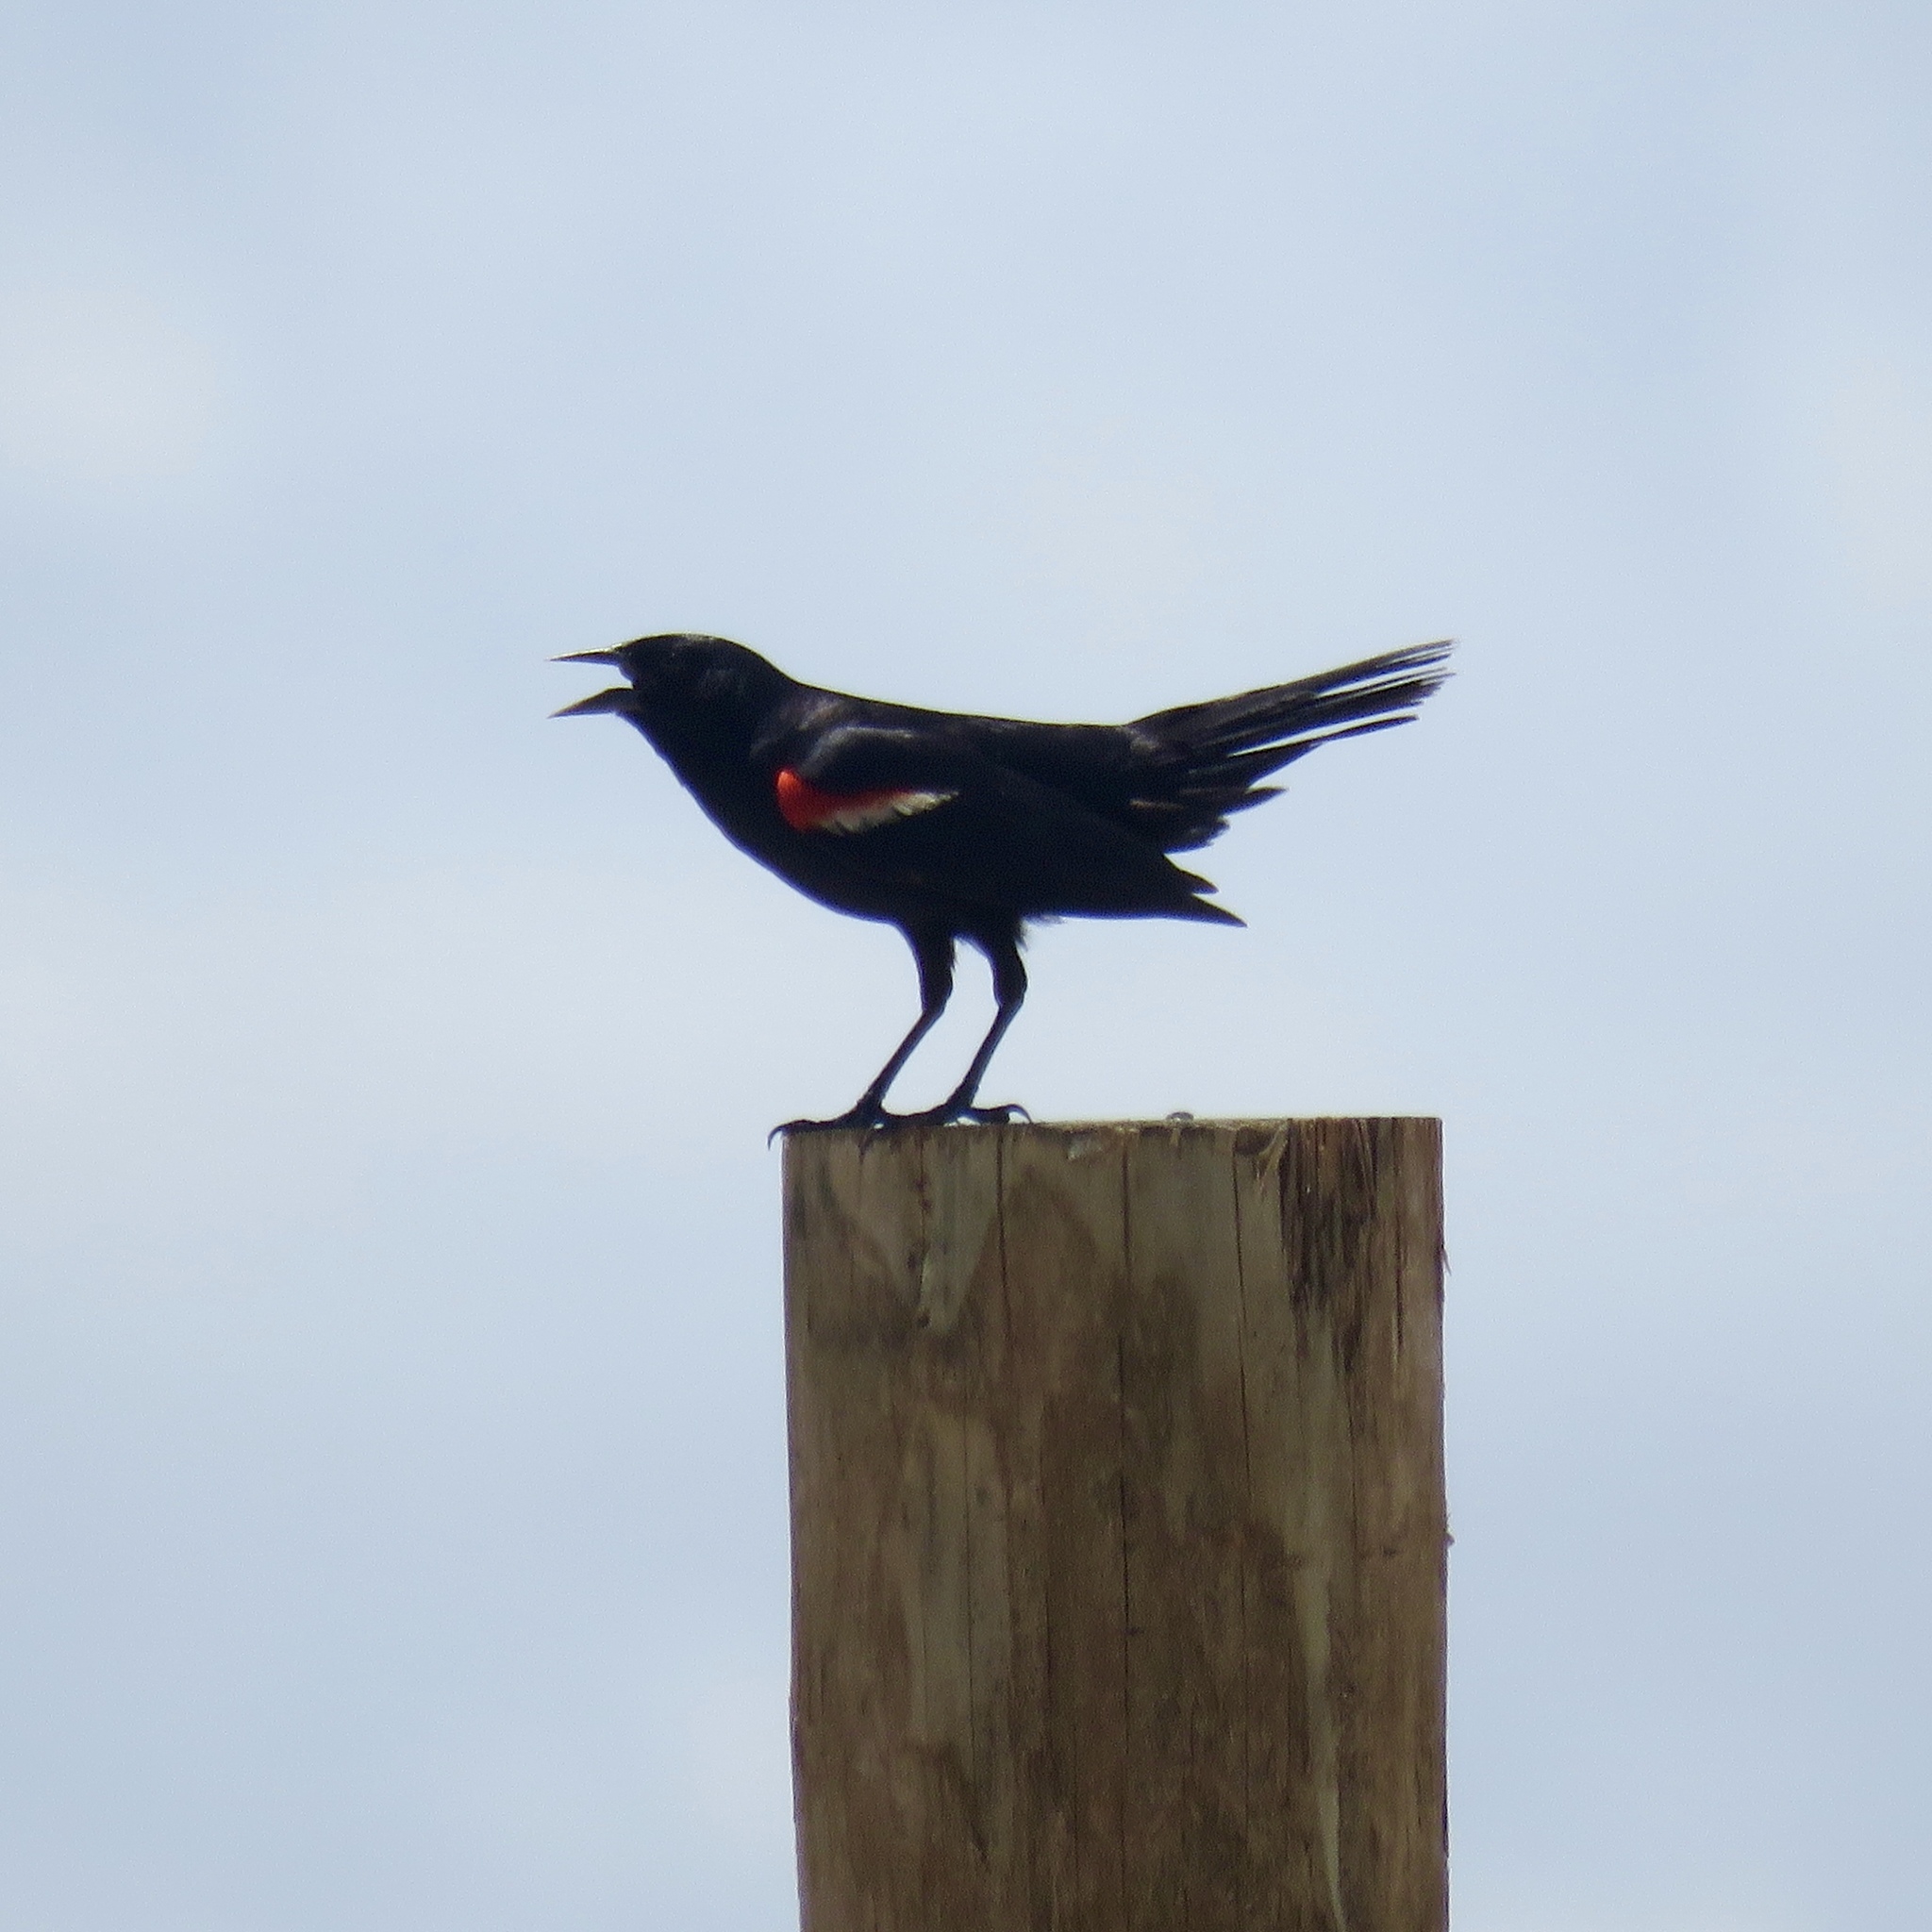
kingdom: Animalia
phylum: Chordata
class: Aves
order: Passeriformes
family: Icteridae
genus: Agelaius
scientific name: Agelaius phoeniceus
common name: Red-winged blackbird
